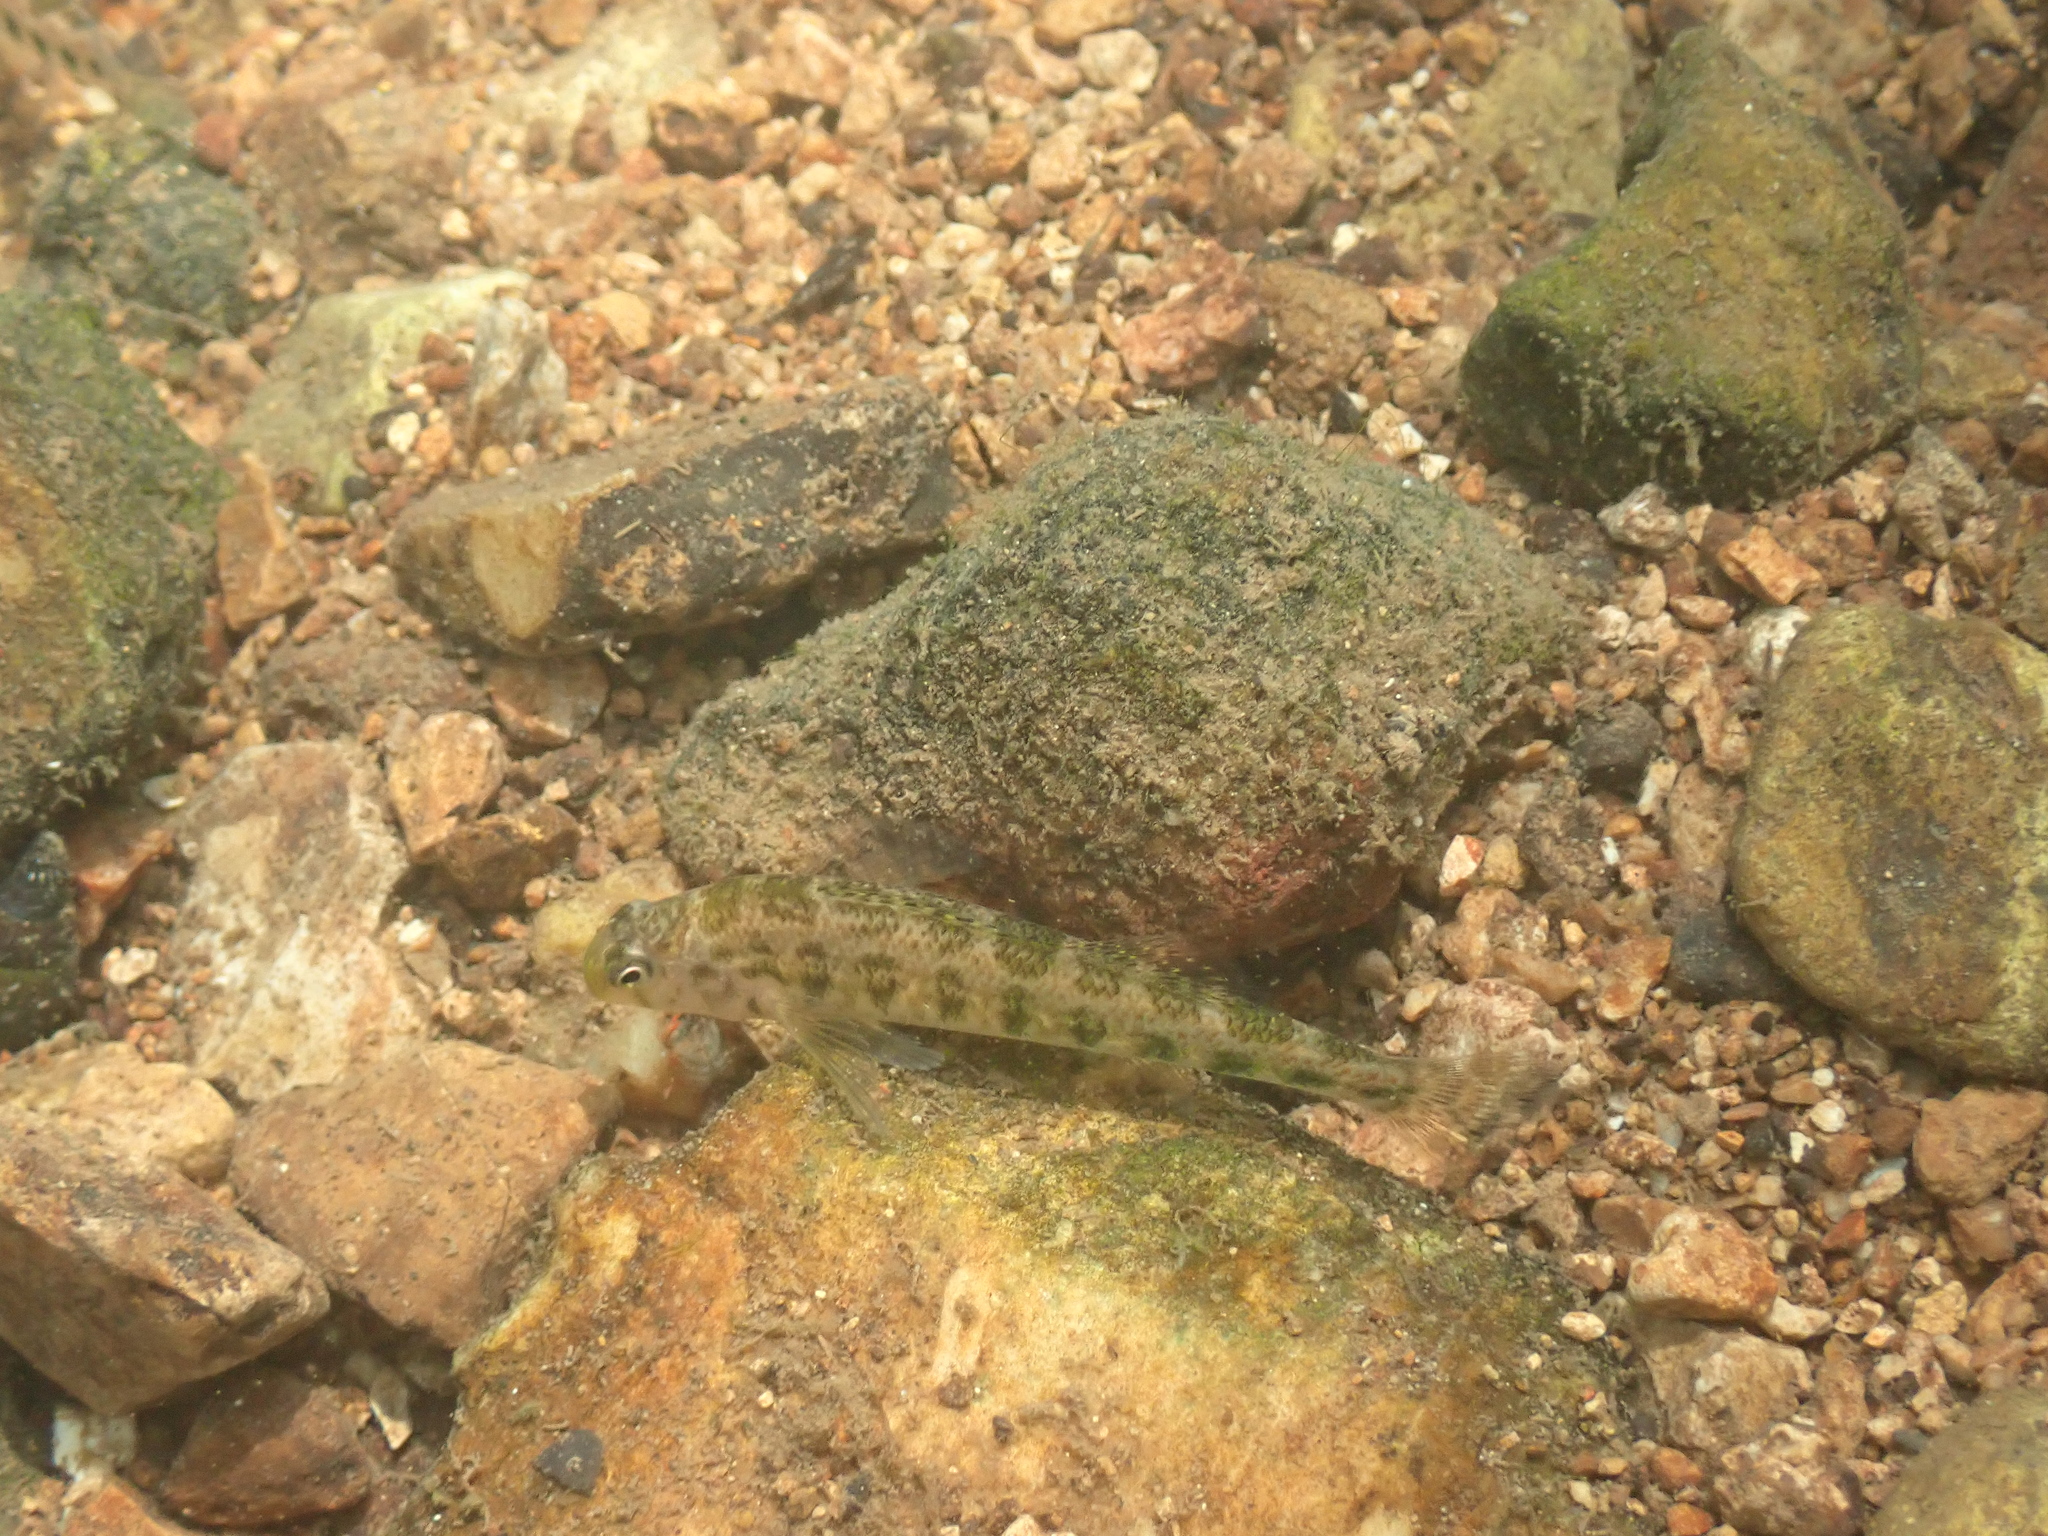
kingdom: Animalia
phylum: Chordata
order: Perciformes
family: Percidae
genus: Etheostoma
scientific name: Etheostoma simoterum
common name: Snubnose darter
